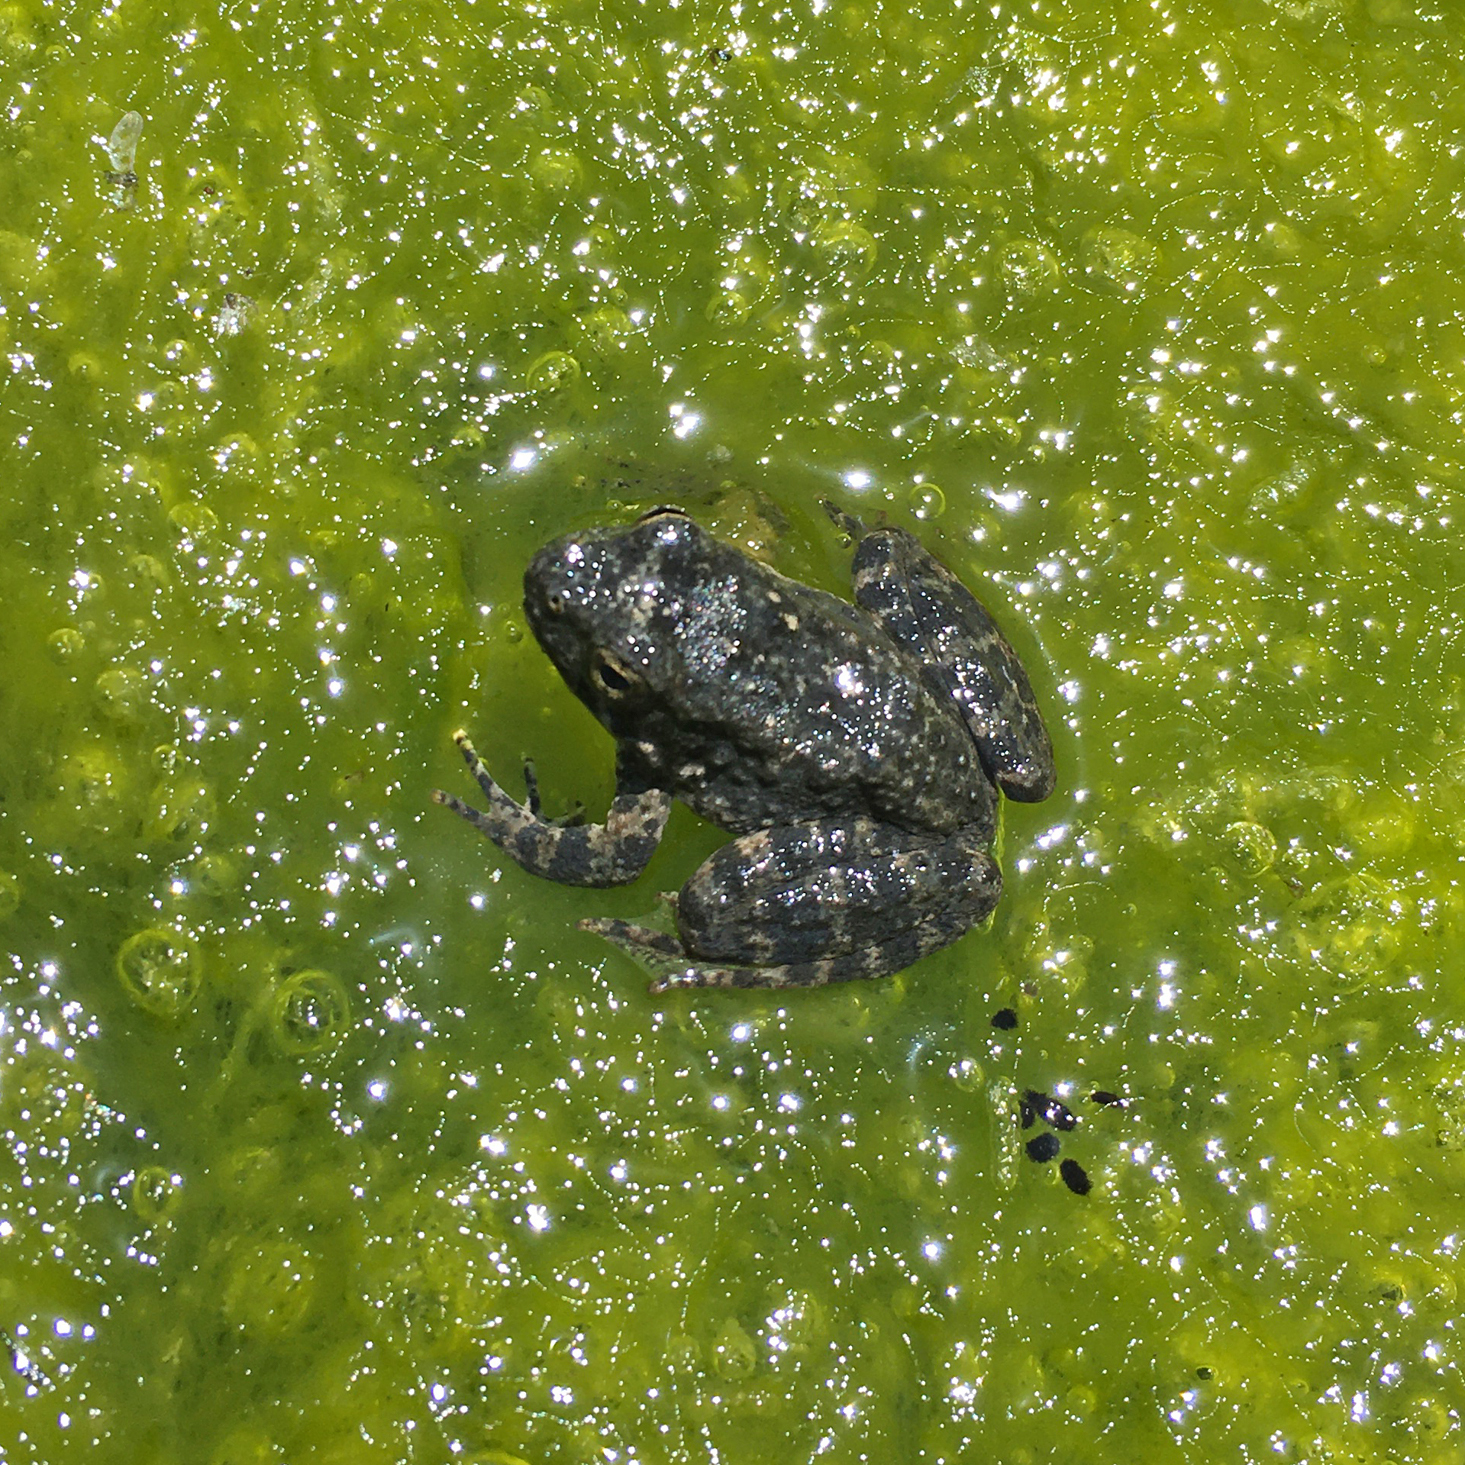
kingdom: Animalia
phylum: Chordata
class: Amphibia
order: Anura
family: Ranidae
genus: Rana
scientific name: Rana boylii
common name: Foothill yellow-legged frog
